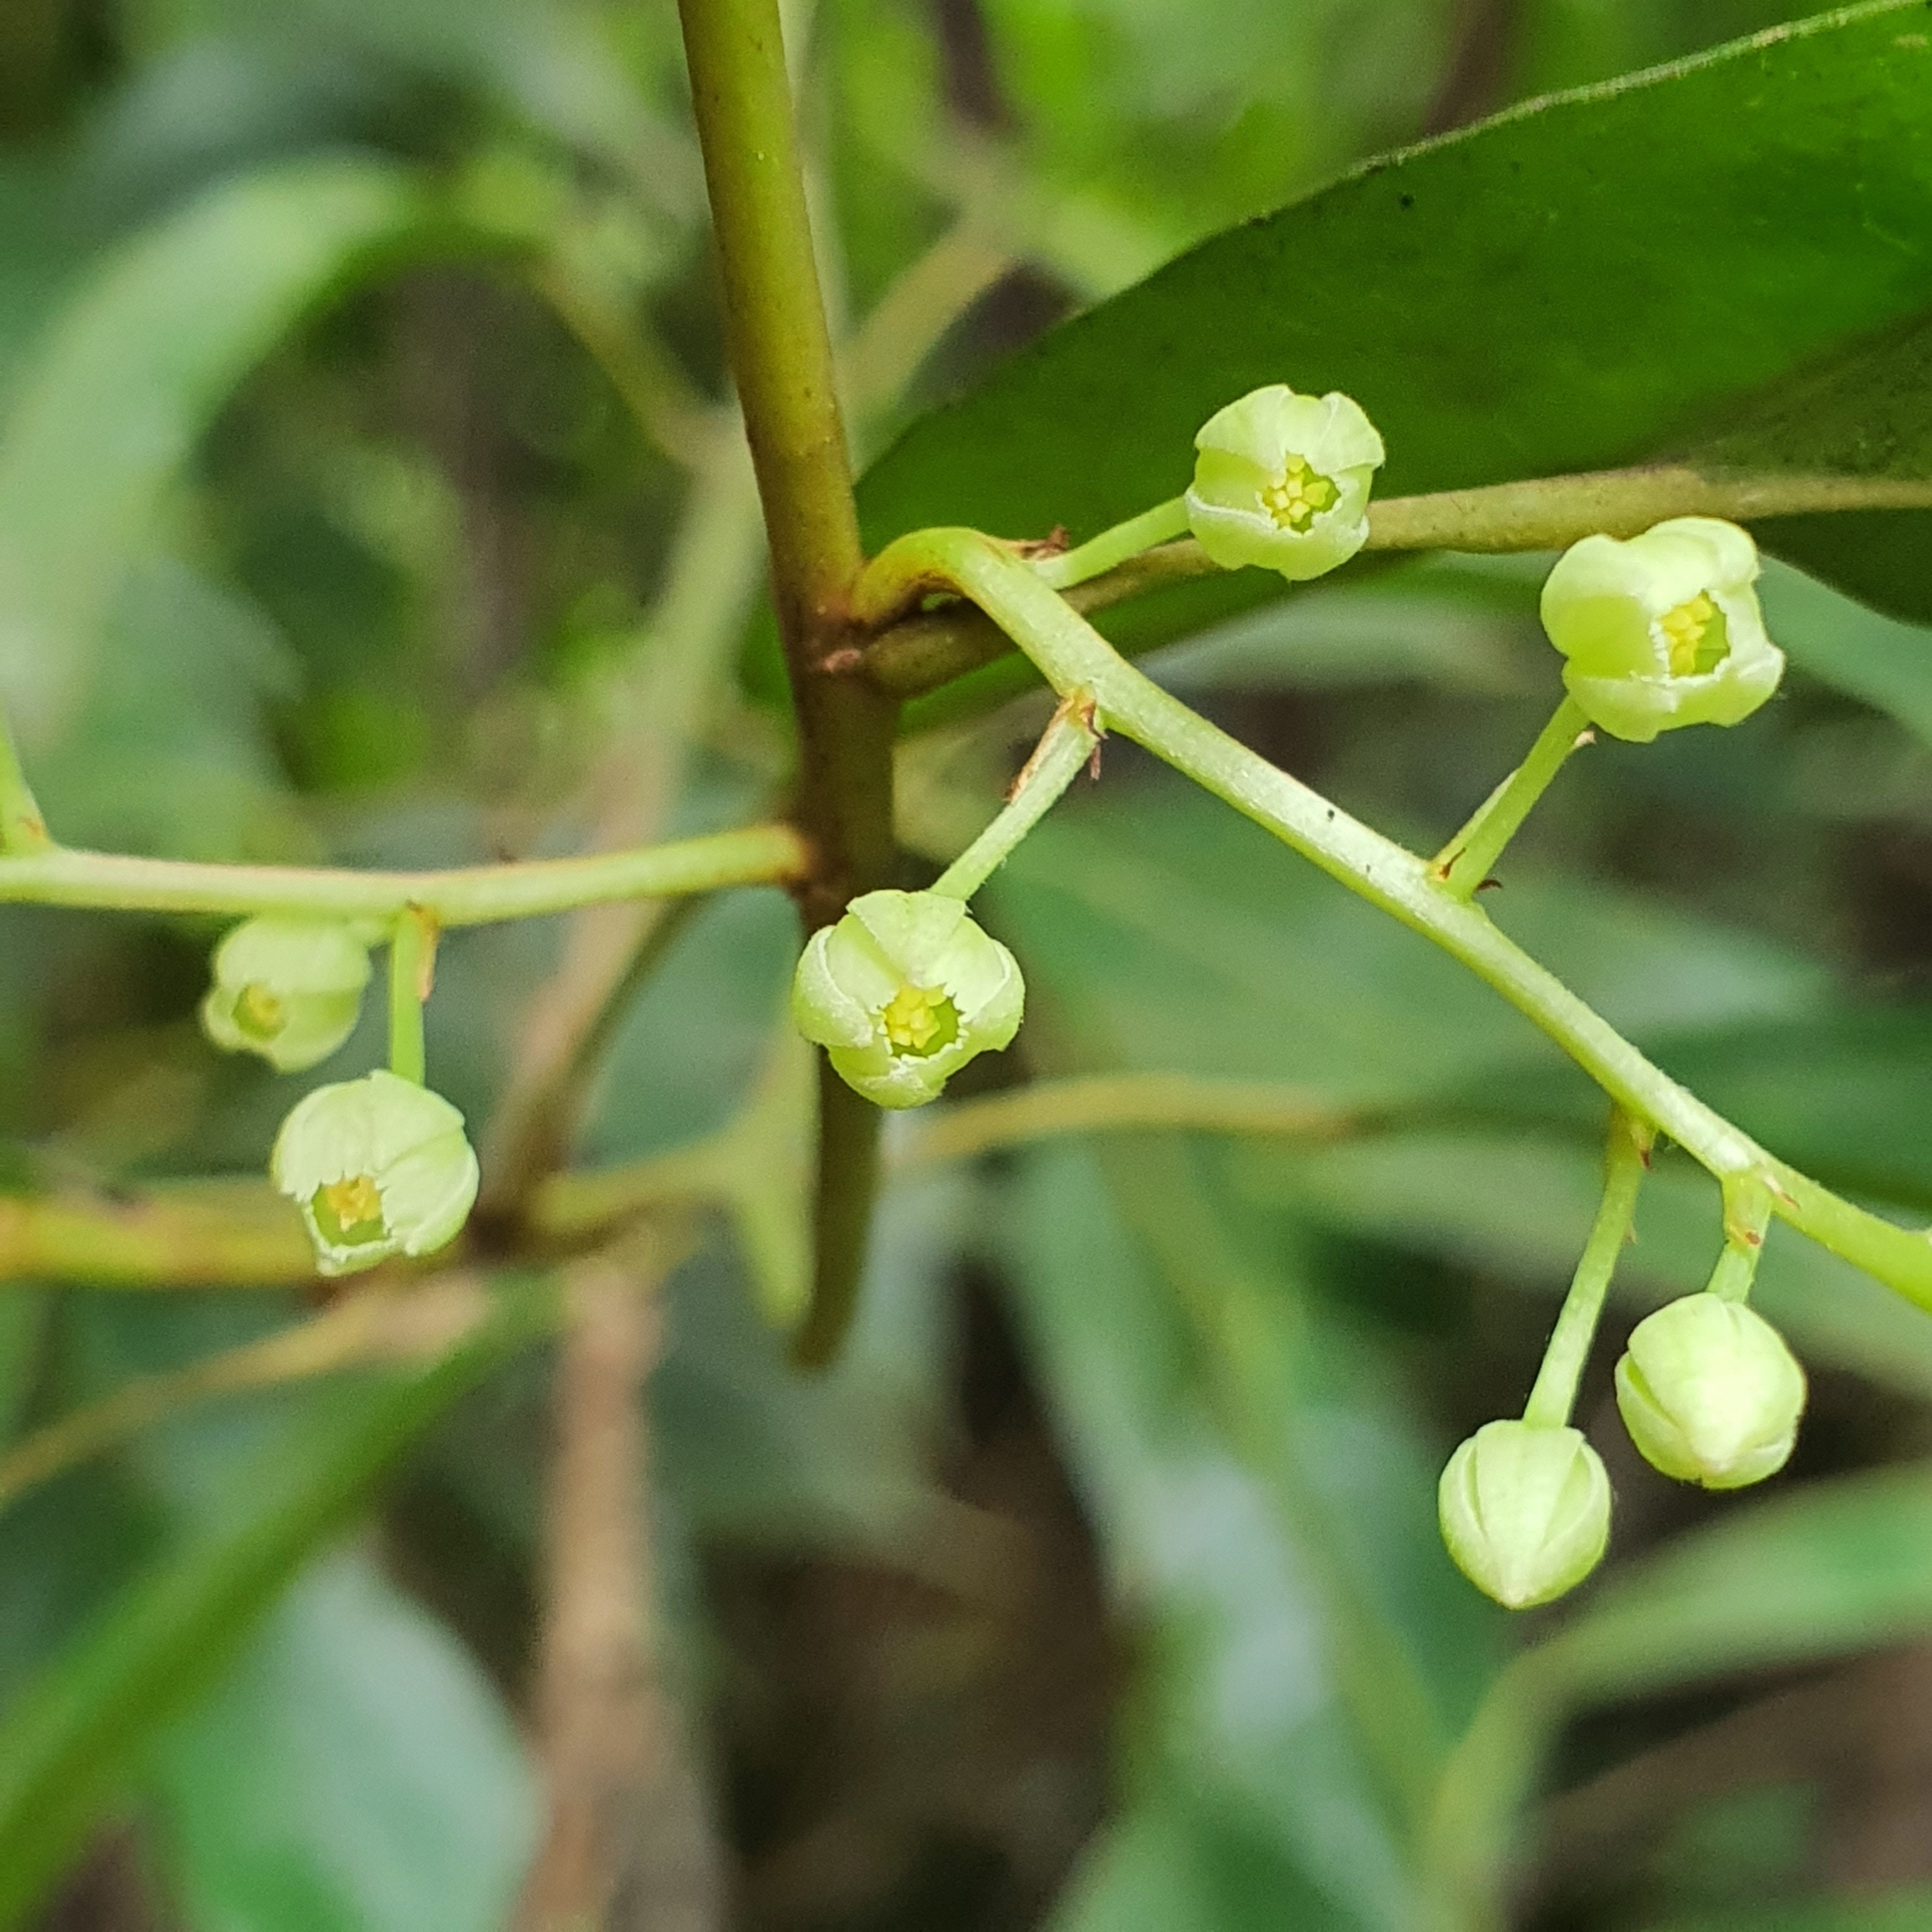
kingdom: Plantae
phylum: Tracheophyta
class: Magnoliopsida
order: Oxalidales
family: Elaeocarpaceae
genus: Elaeocarpus
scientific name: Elaeocarpus mastersii
